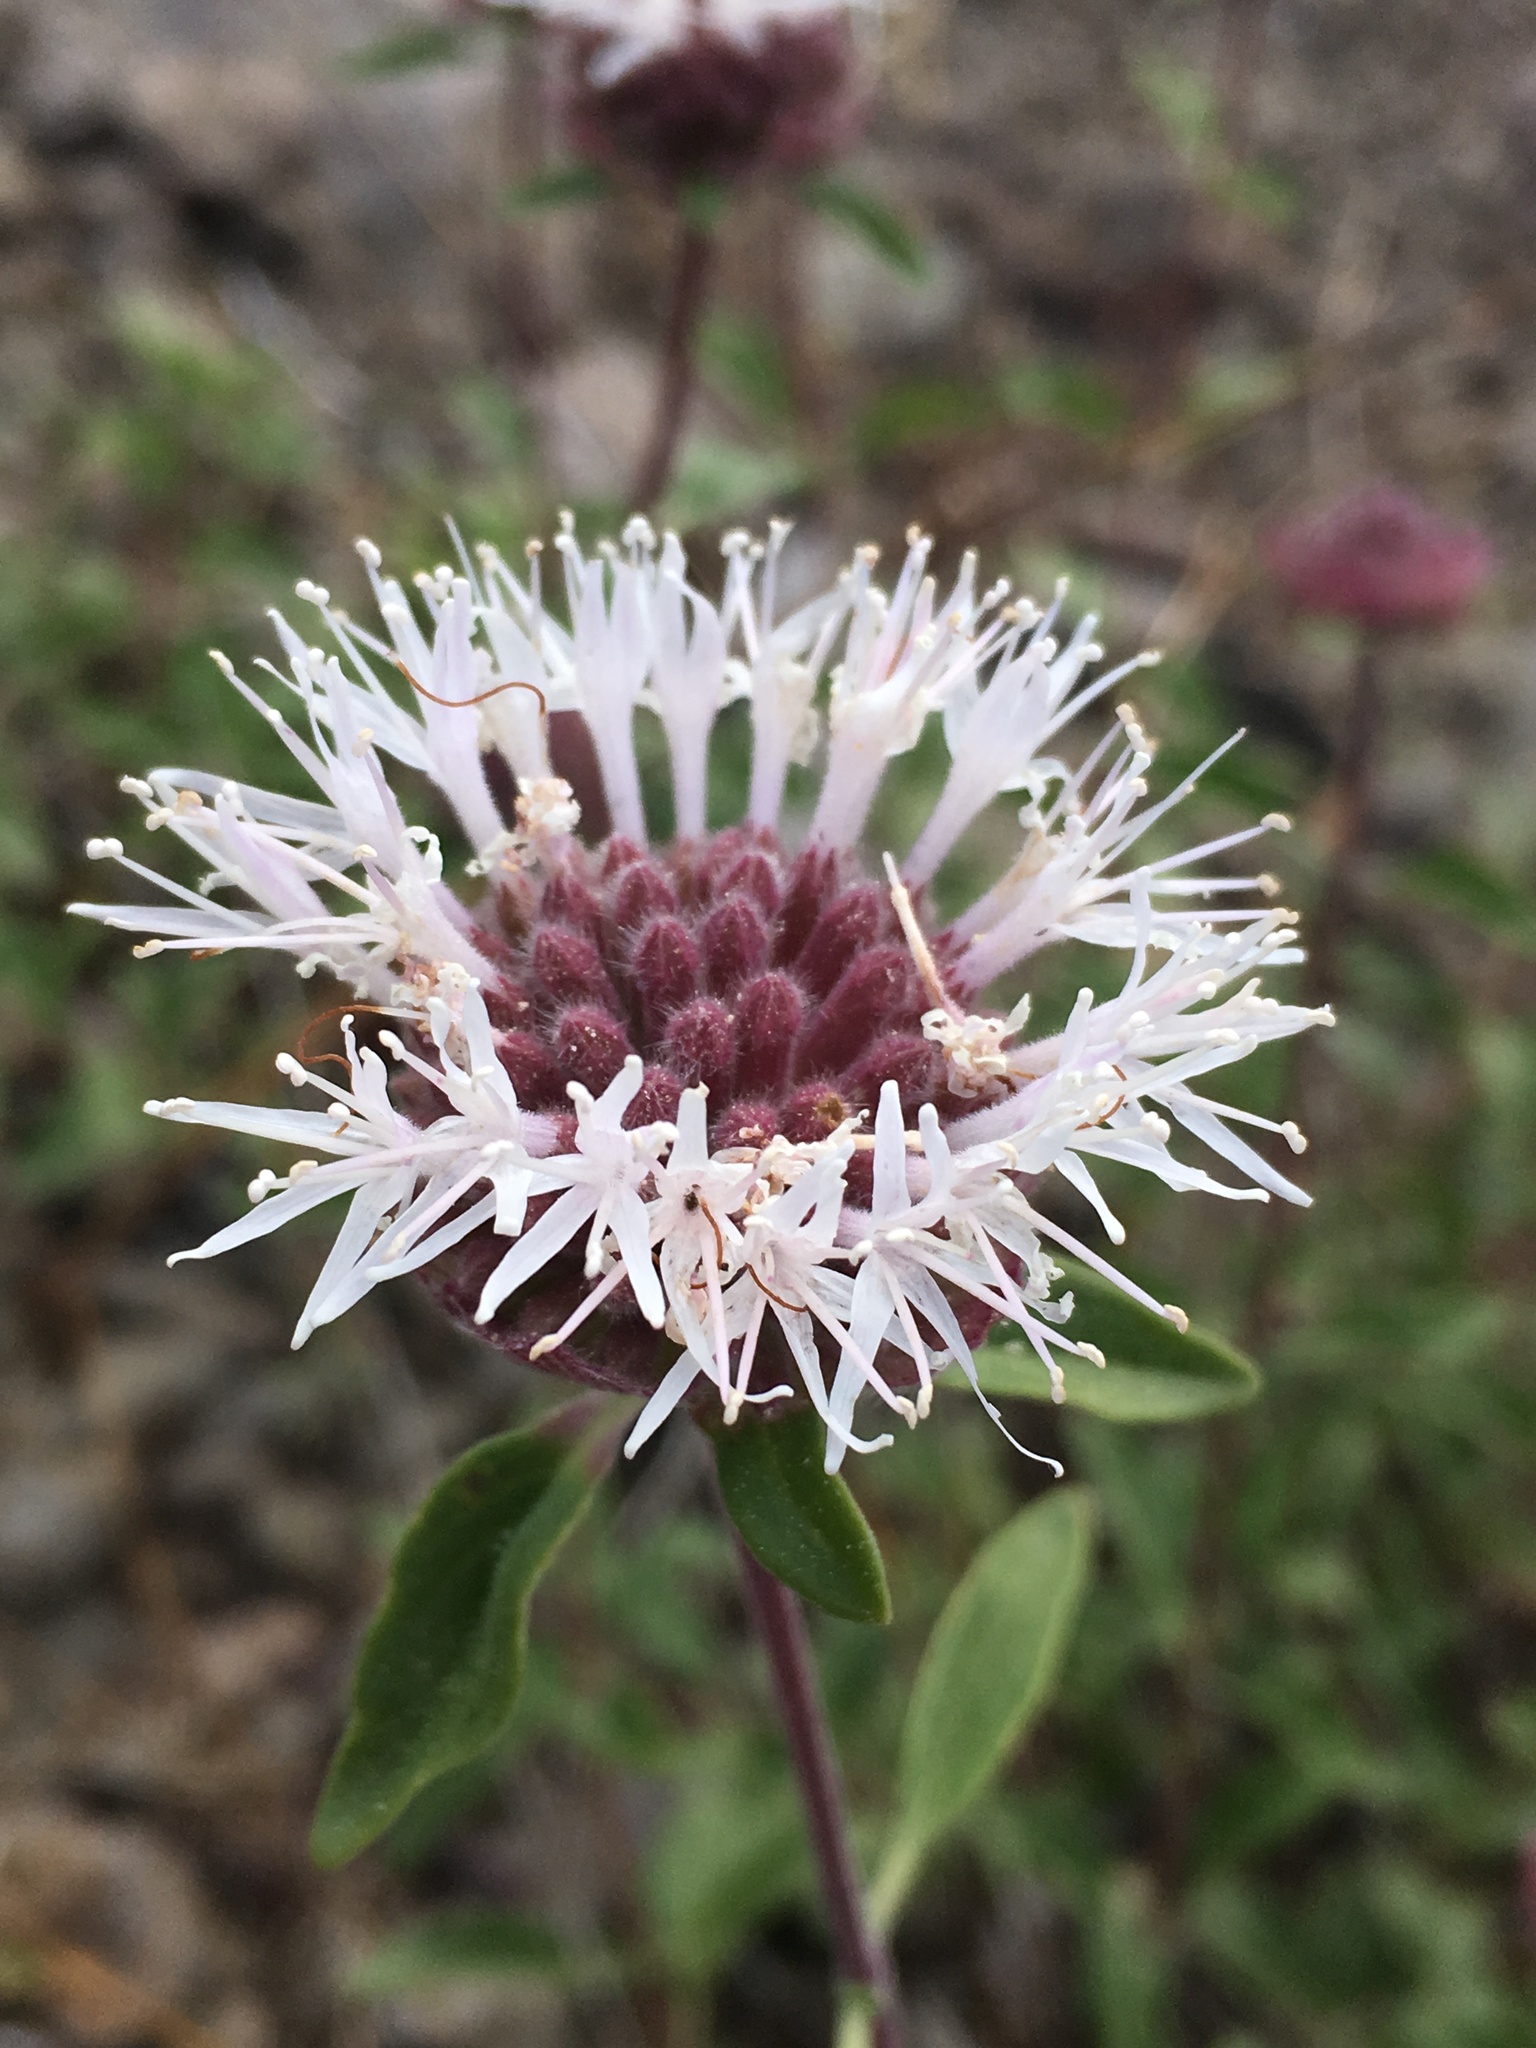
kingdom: Plantae
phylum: Tracheophyta
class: Magnoliopsida
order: Lamiales
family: Lamiaceae
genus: Monardella
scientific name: Monardella odoratissima
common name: Pacific monardella
